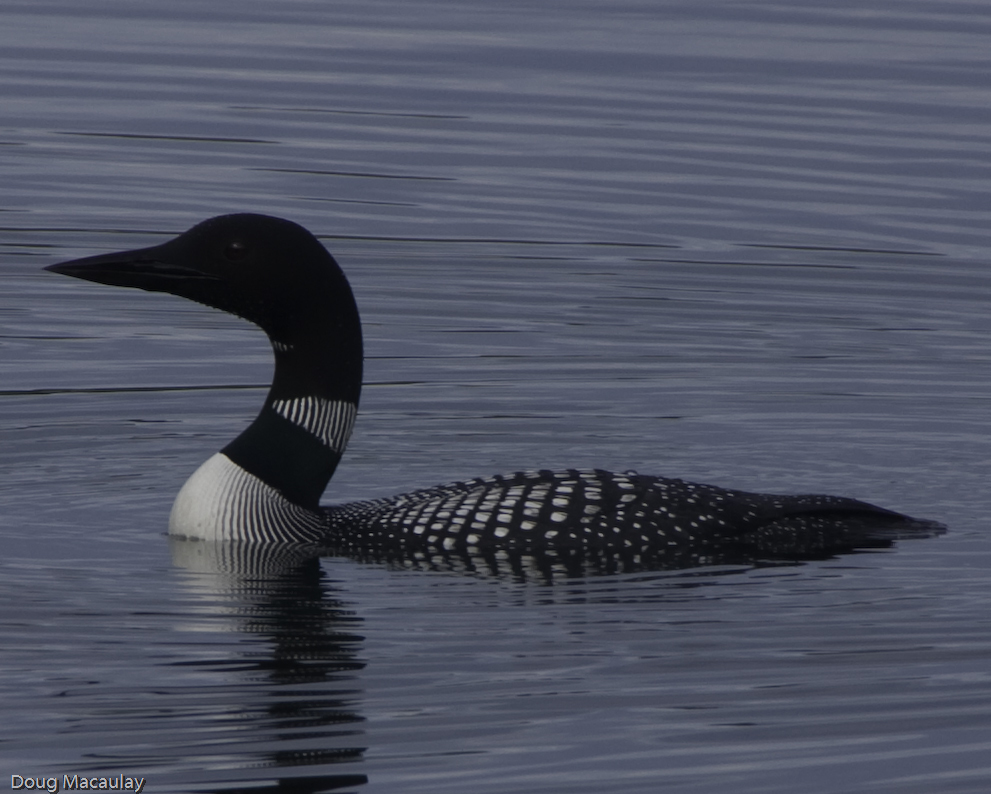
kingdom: Animalia
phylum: Chordata
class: Aves
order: Gaviiformes
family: Gaviidae
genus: Gavia
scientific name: Gavia immer
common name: Common loon
